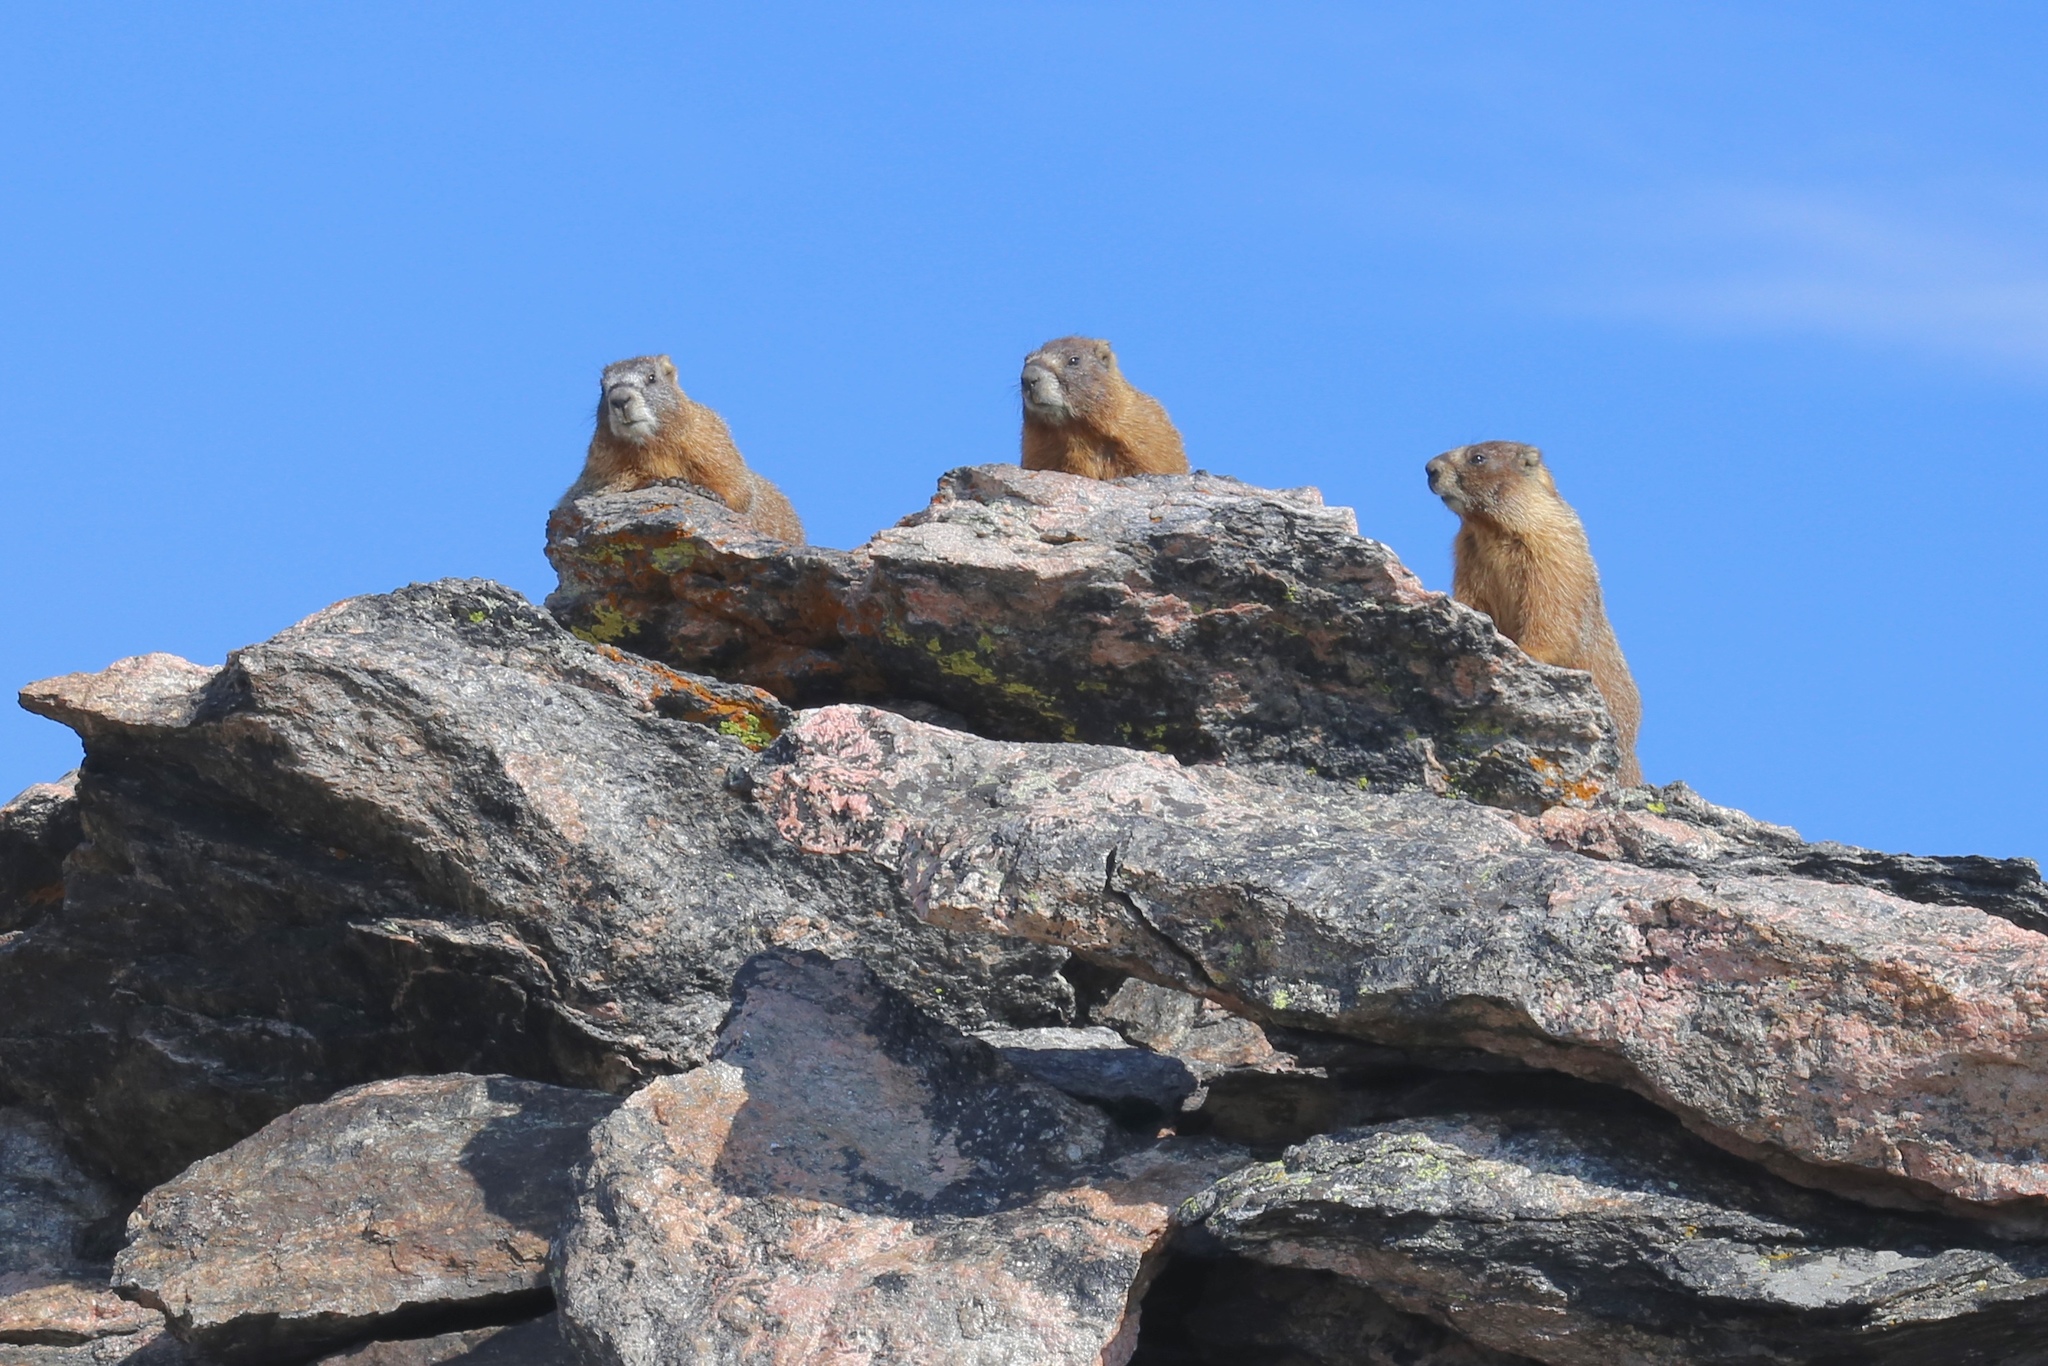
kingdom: Animalia
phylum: Chordata
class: Mammalia
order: Rodentia
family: Sciuridae
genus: Marmota
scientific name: Marmota flaviventris
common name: Yellow-bellied marmot
